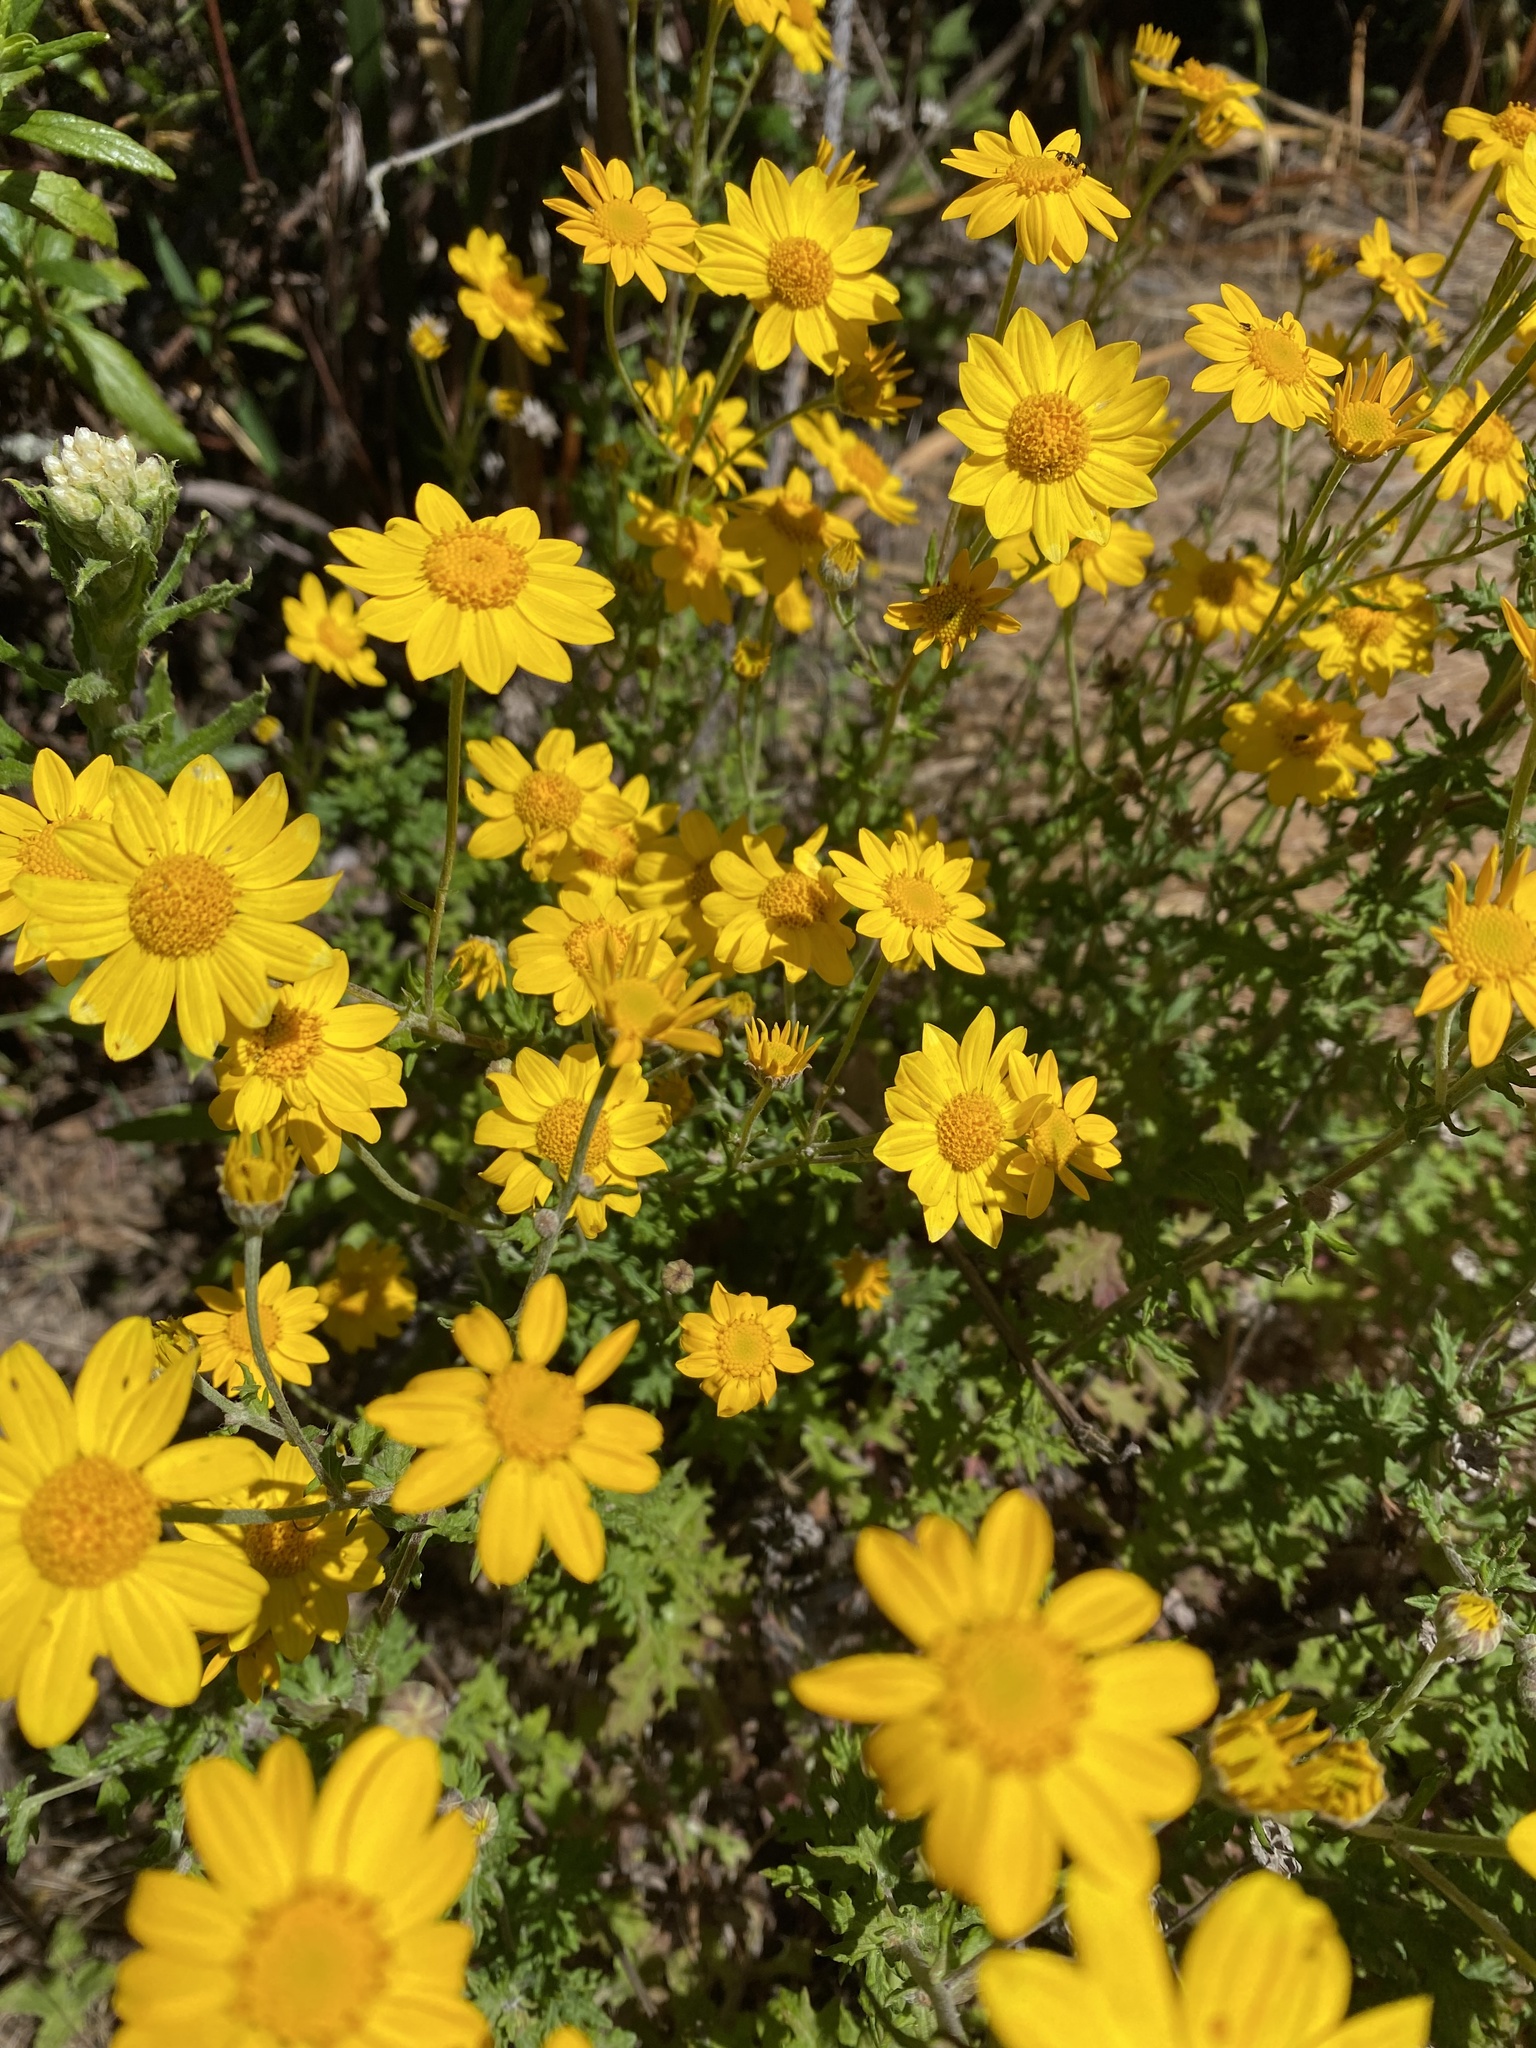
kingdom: Plantae
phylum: Tracheophyta
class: Magnoliopsida
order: Asterales
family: Asteraceae
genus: Eriophyllum
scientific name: Eriophyllum lanatum
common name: Common woolly-sunflower
